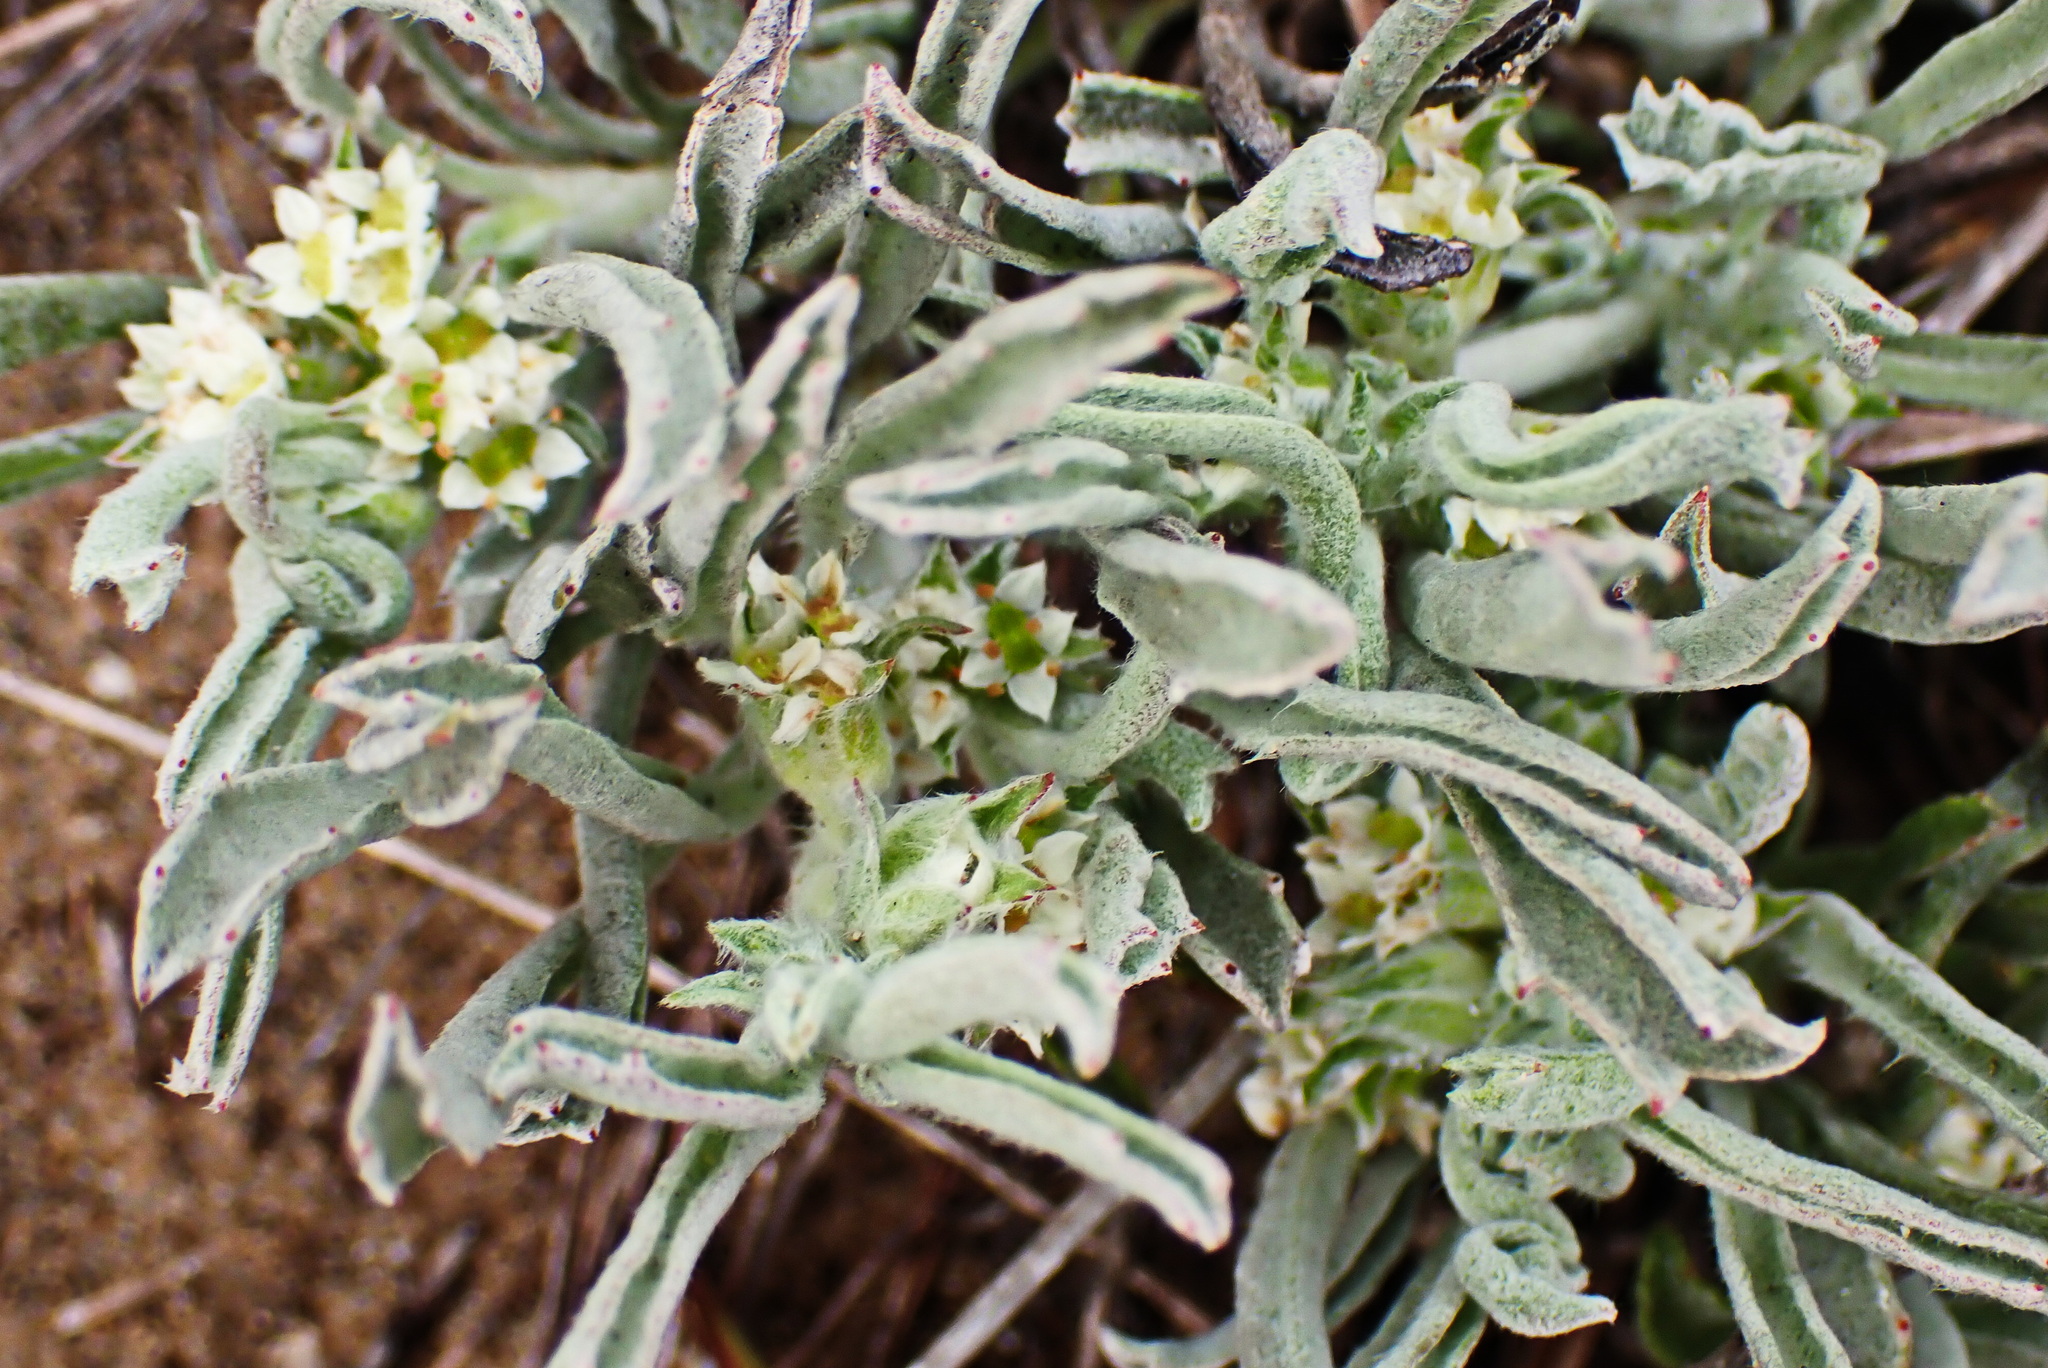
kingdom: Plantae
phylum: Tracheophyta
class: Magnoliopsida
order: Apiales
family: Apiaceae
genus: Centella
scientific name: Centella tridentata
